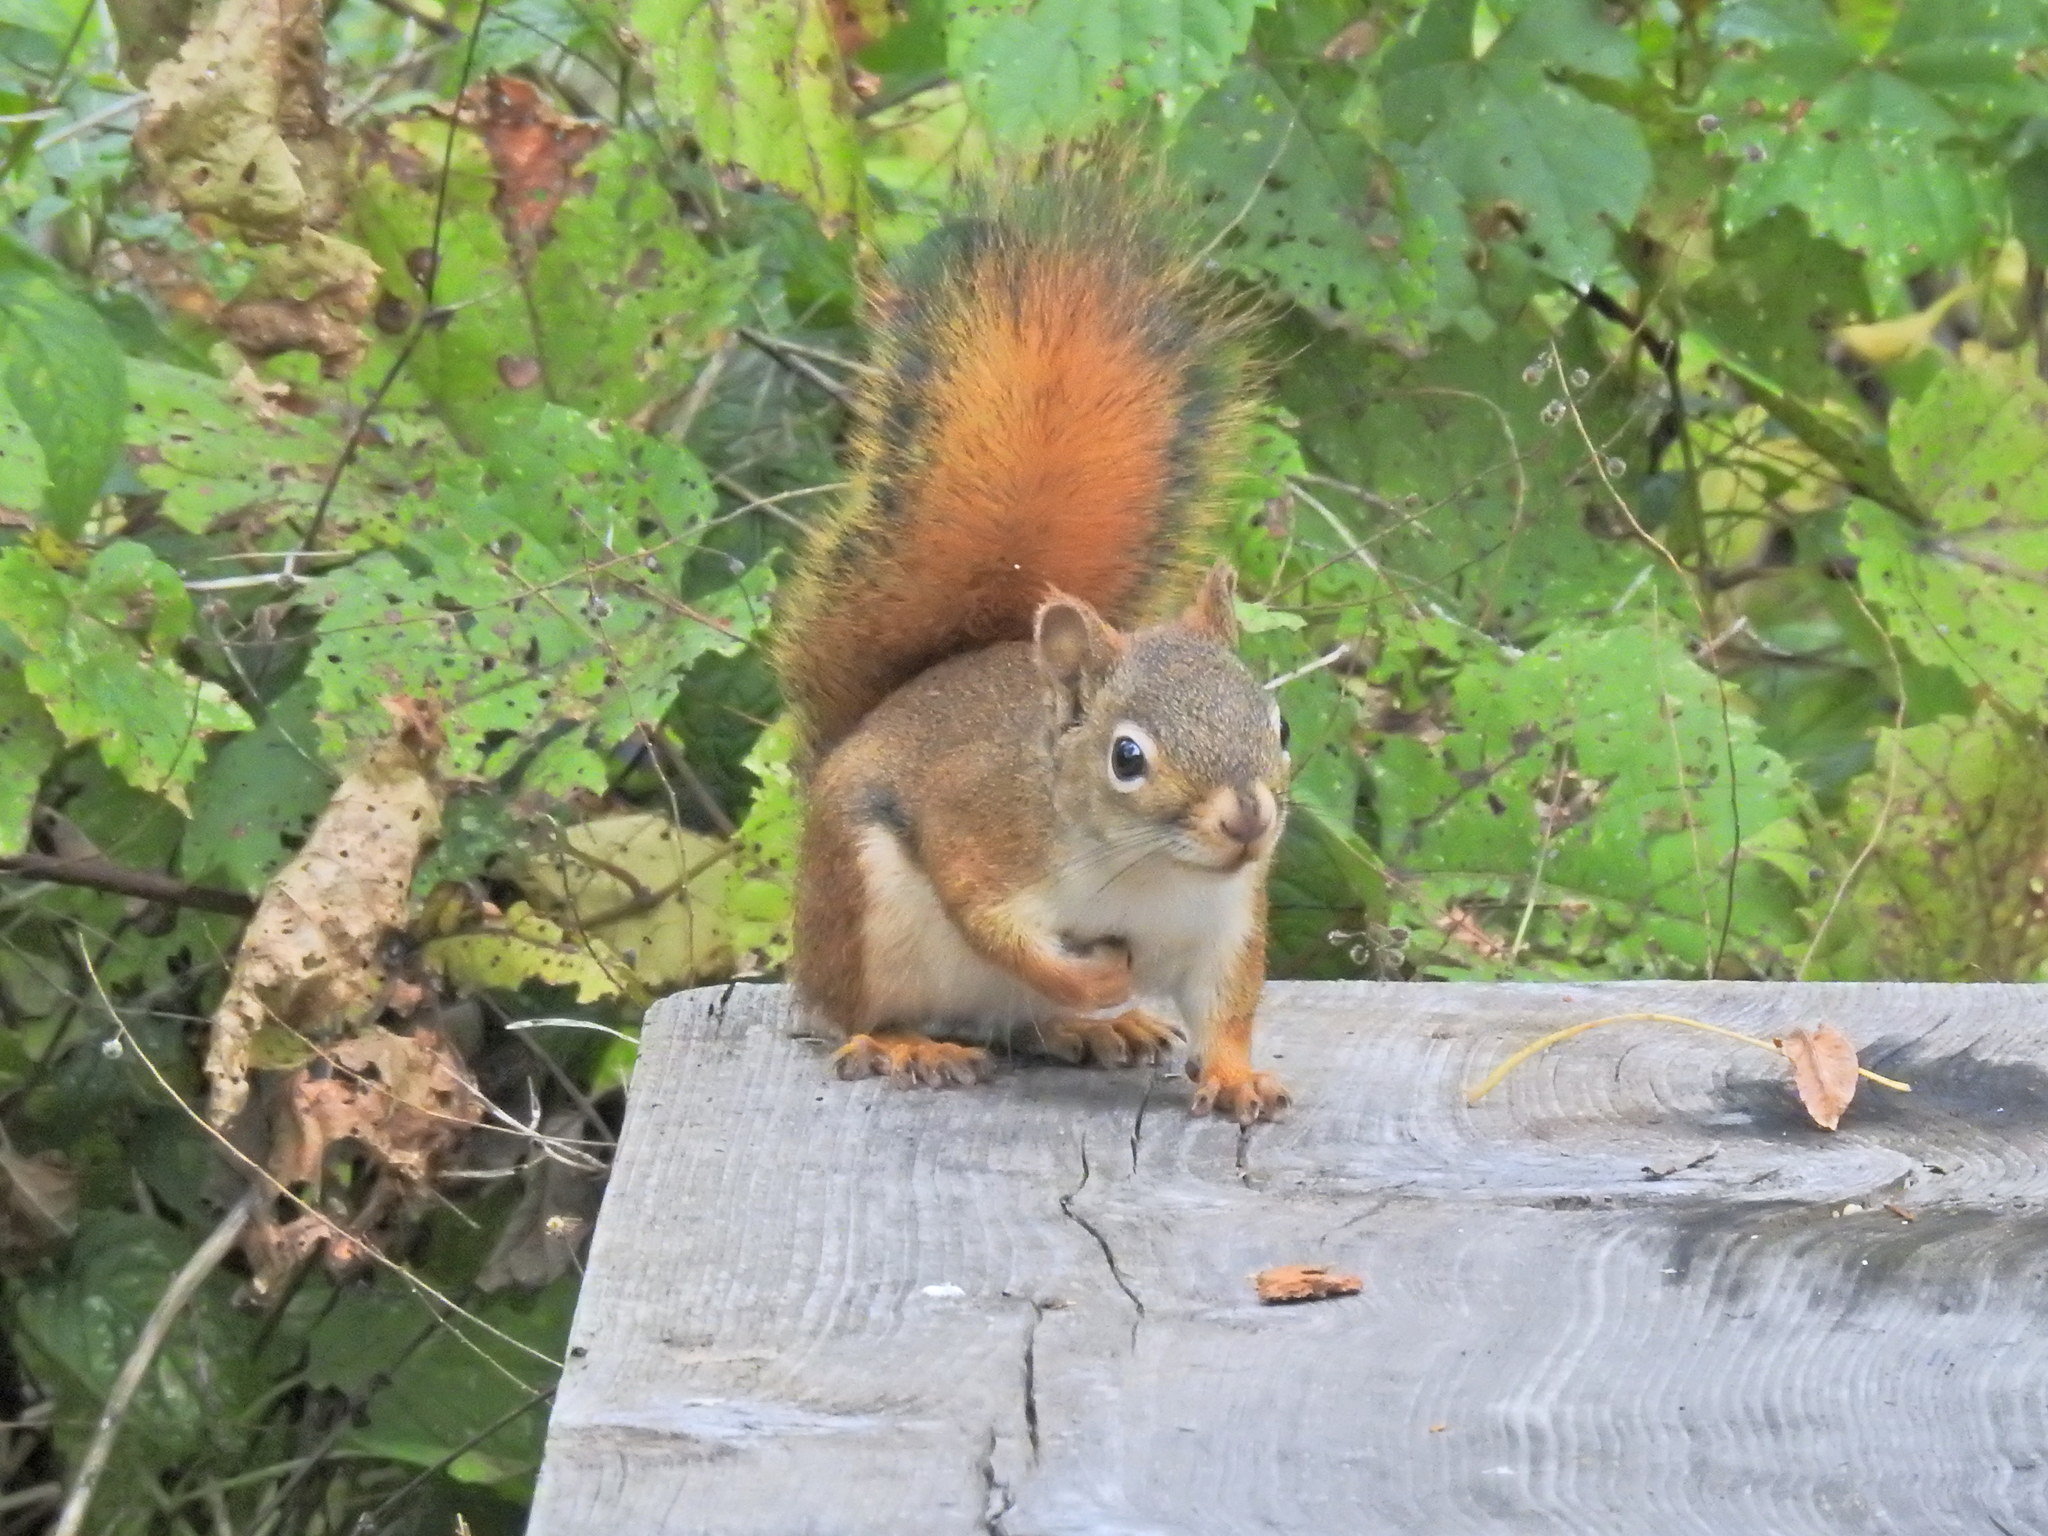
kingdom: Animalia
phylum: Chordata
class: Mammalia
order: Rodentia
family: Sciuridae
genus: Tamiasciurus
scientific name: Tamiasciurus hudsonicus
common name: Red squirrel
